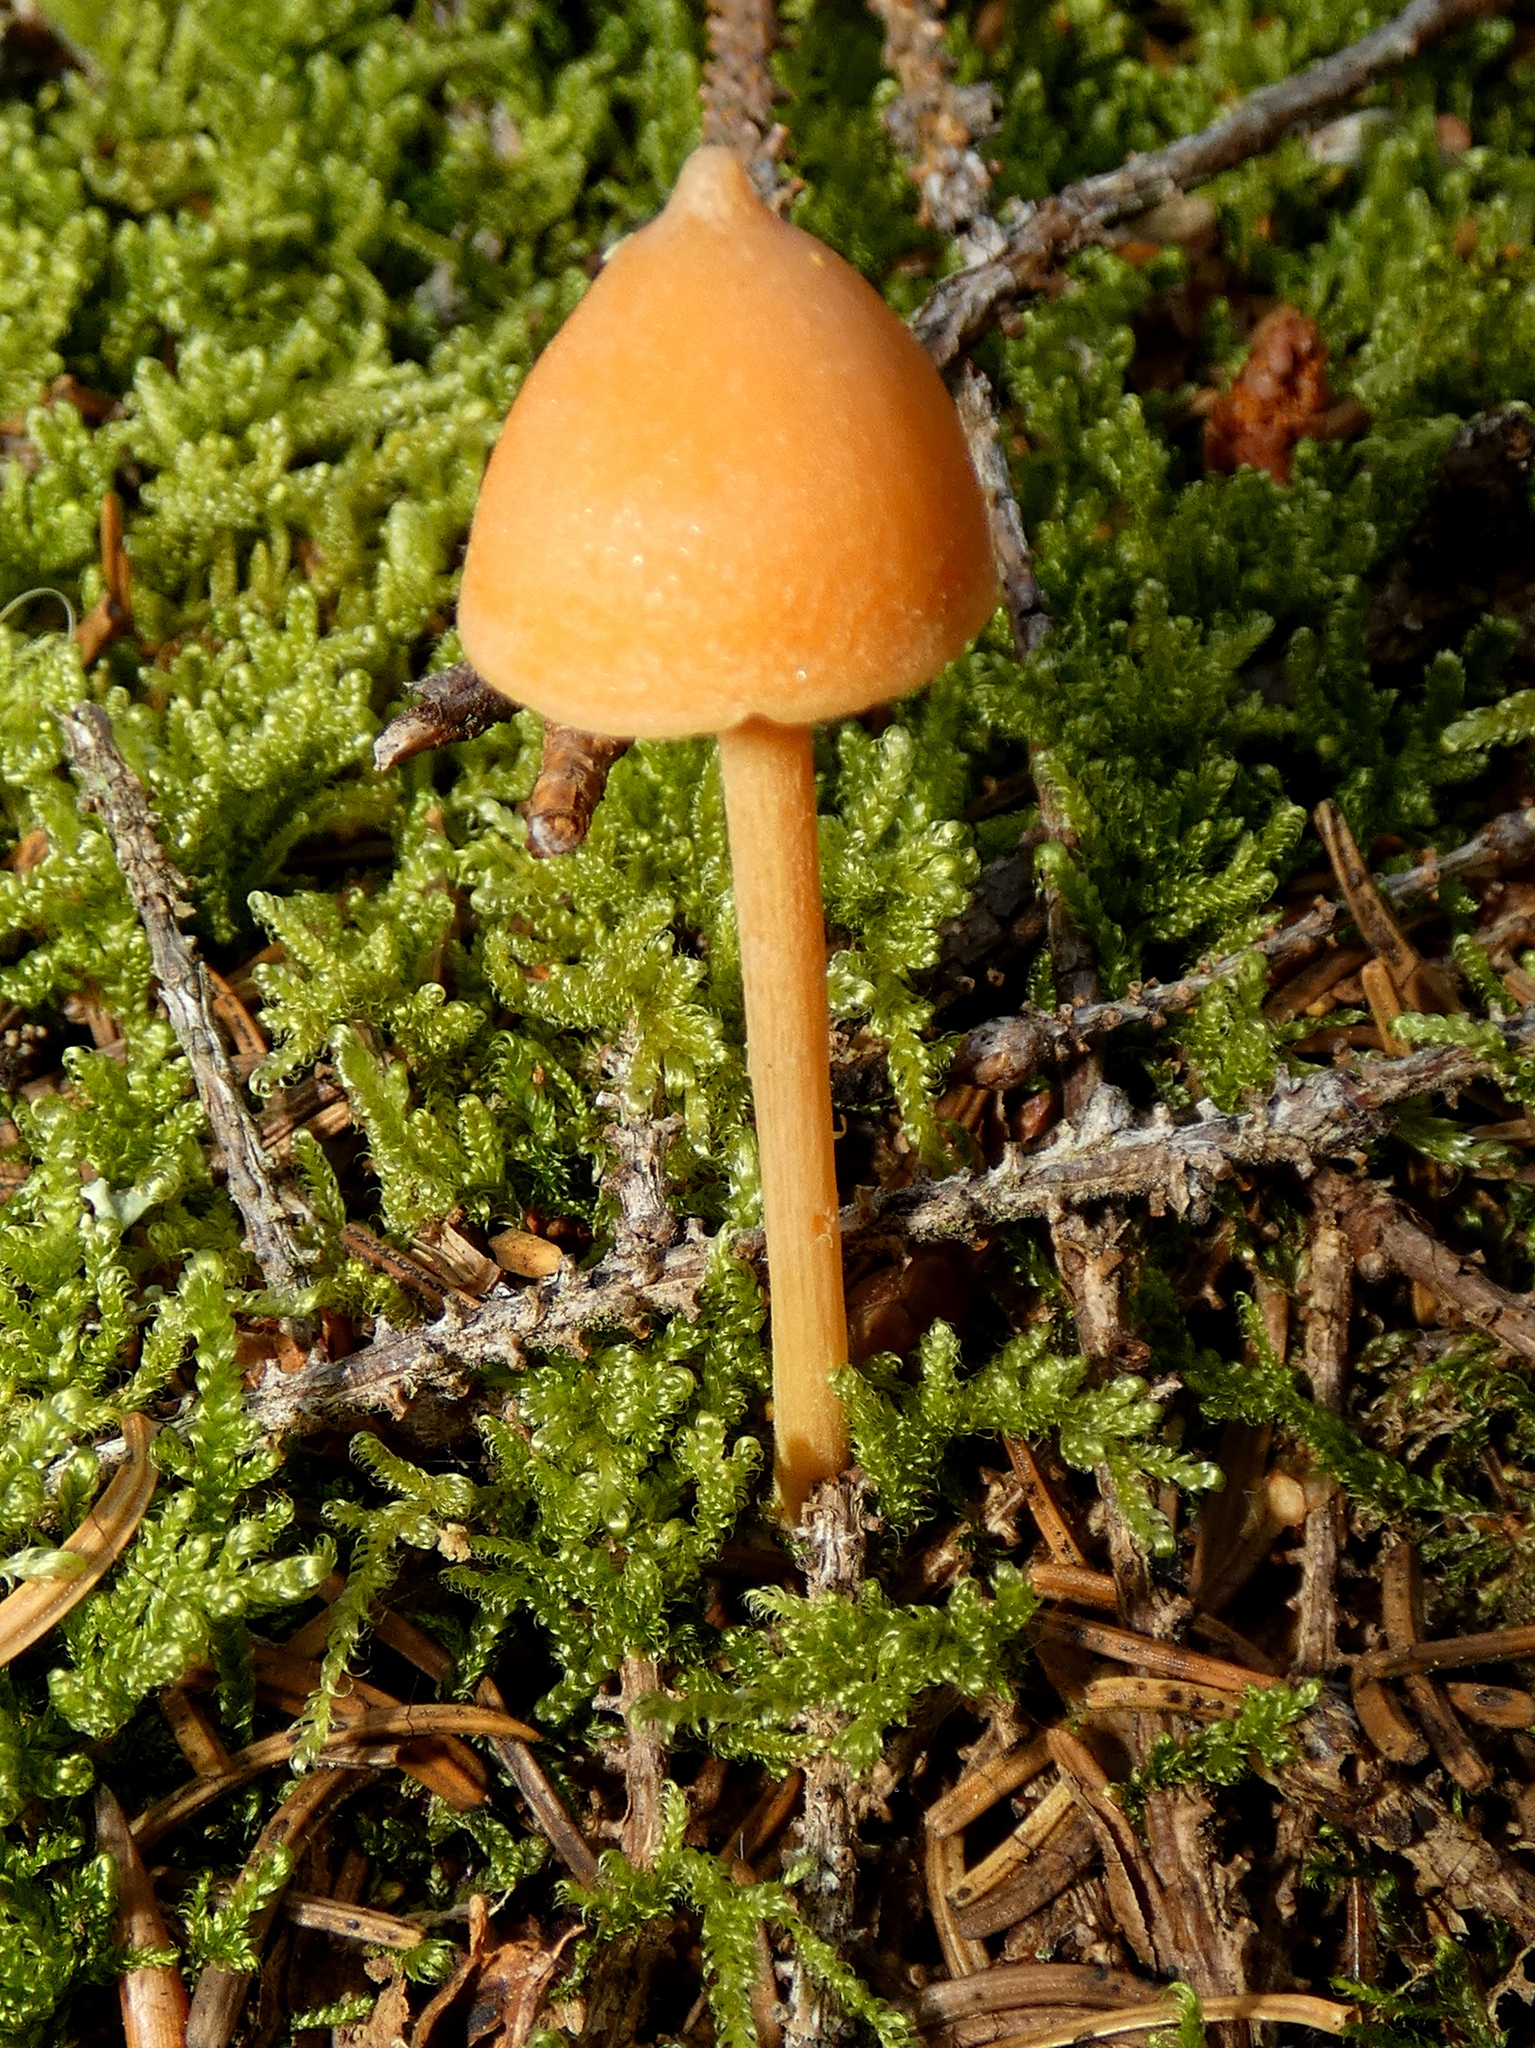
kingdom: Fungi
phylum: Basidiomycota
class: Agaricomycetes
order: Agaricales
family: Entolomataceae
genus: Entoloma
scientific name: Entoloma quadratum
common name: Salmon pinkgill
